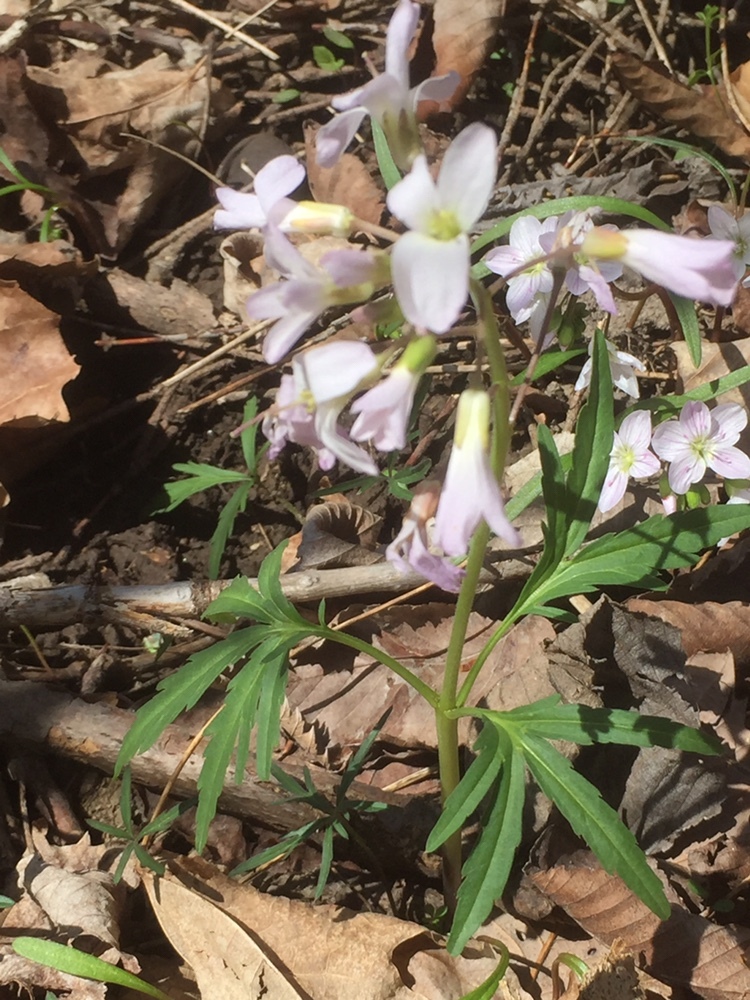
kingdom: Plantae
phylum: Tracheophyta
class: Magnoliopsida
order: Brassicales
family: Brassicaceae
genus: Cardamine
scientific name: Cardamine concatenata
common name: Cut-leaf toothcup
